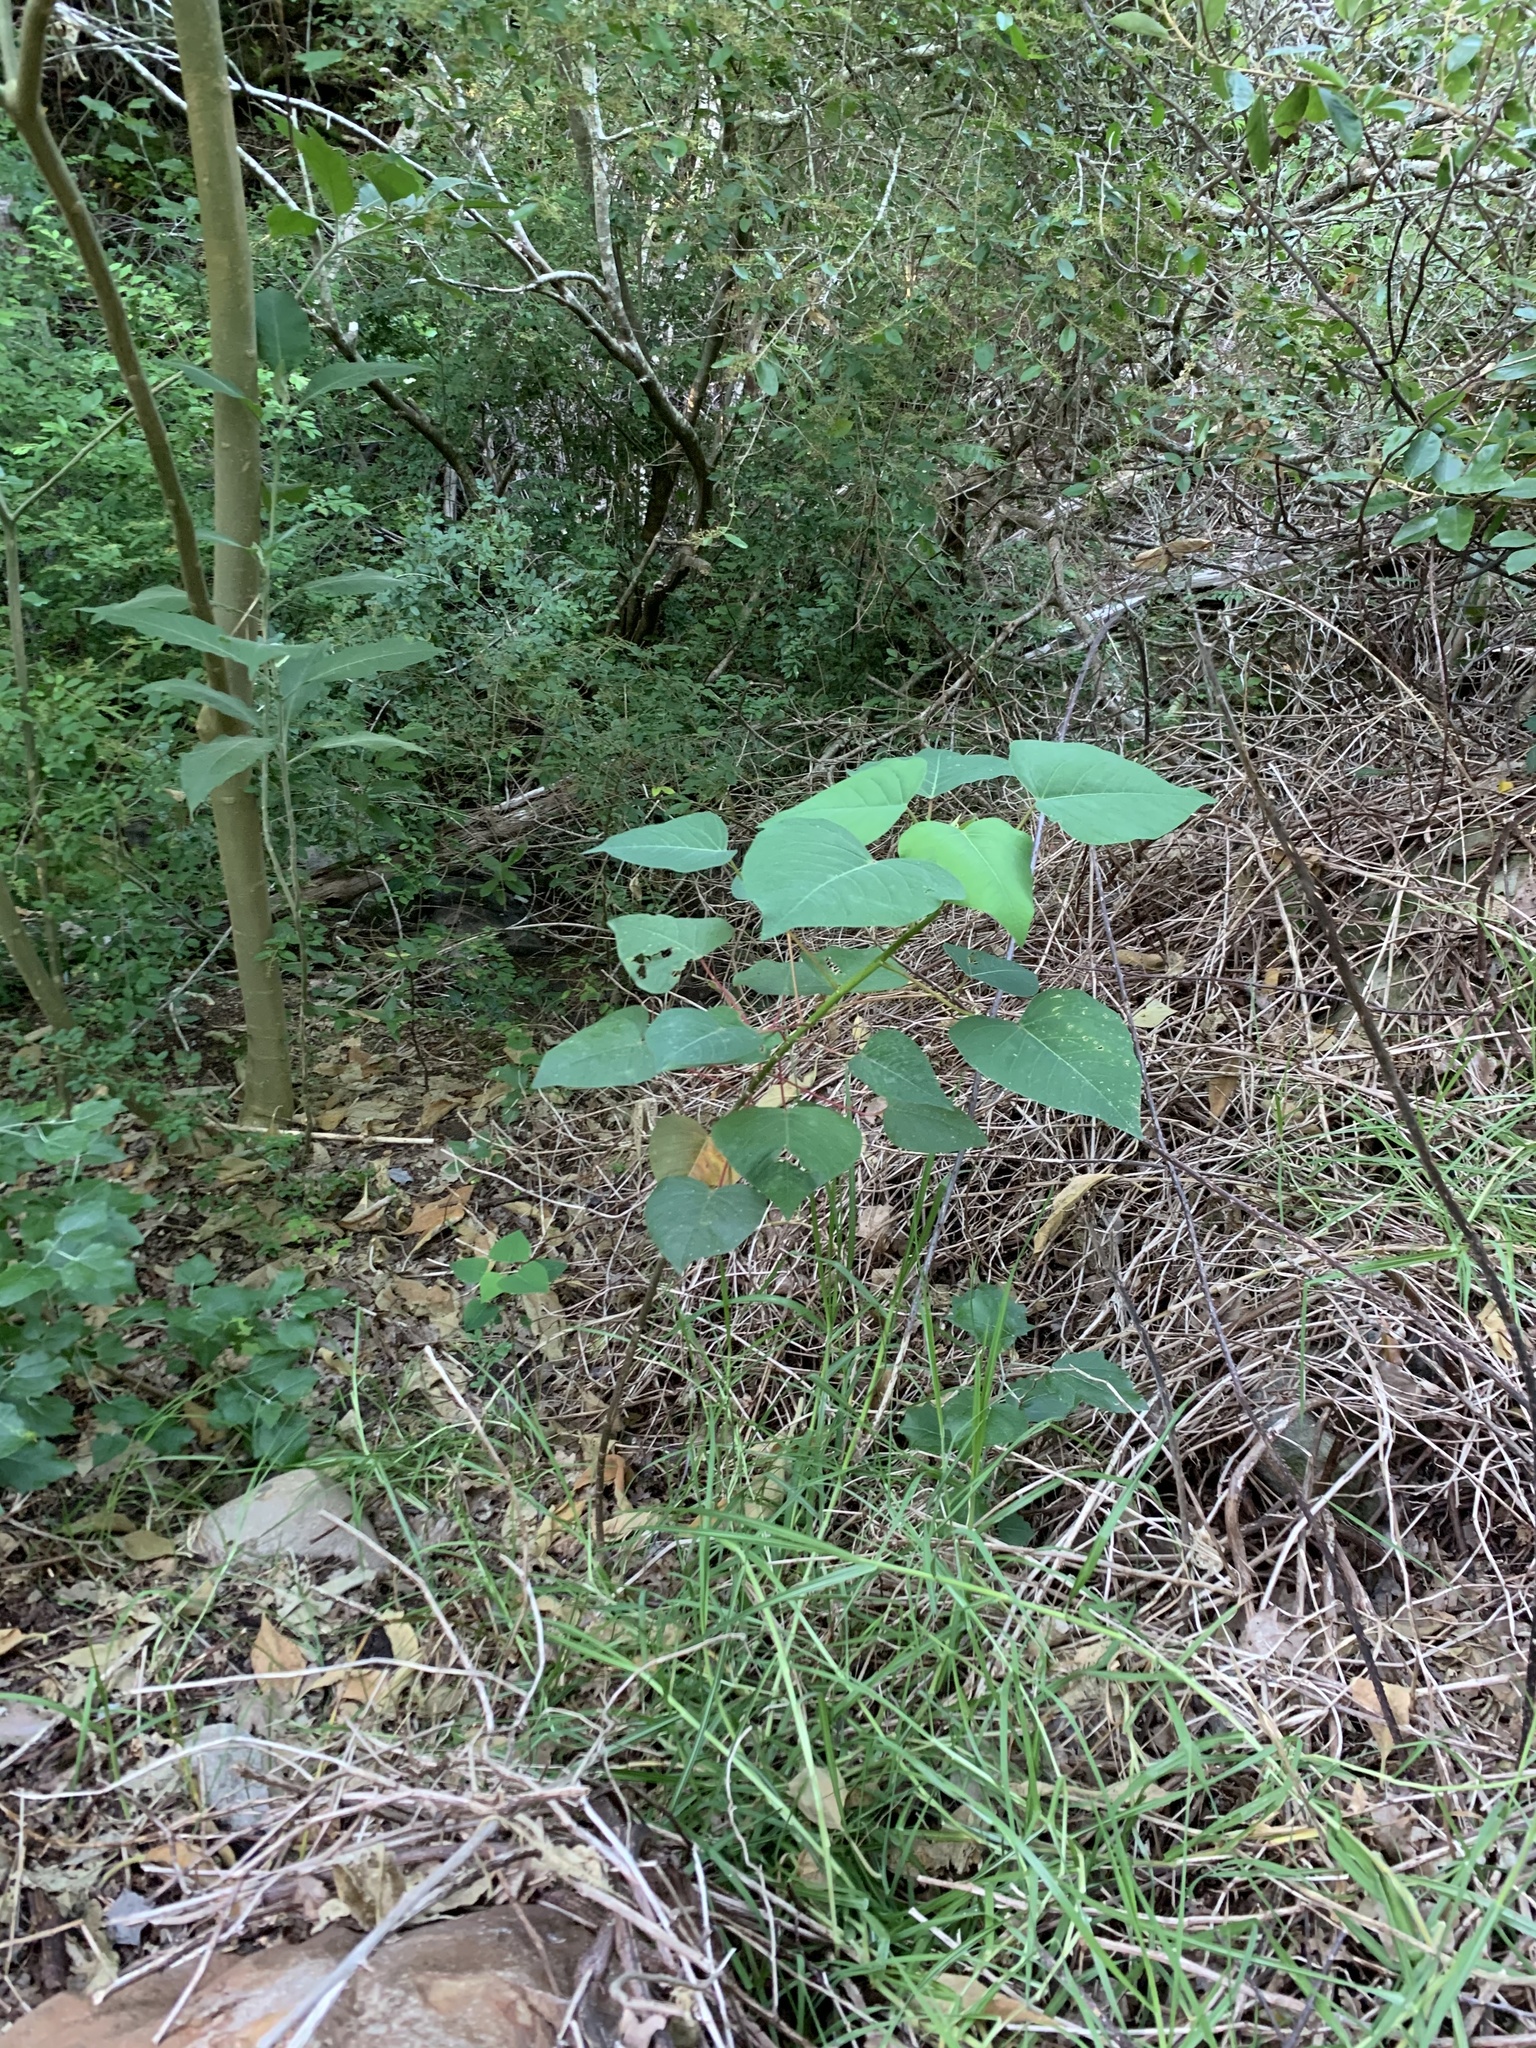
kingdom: Plantae
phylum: Tracheophyta
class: Magnoliopsida
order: Malpighiales
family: Euphorbiaceae
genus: Homalanthus
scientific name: Homalanthus populifolius
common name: Queensland poplar
